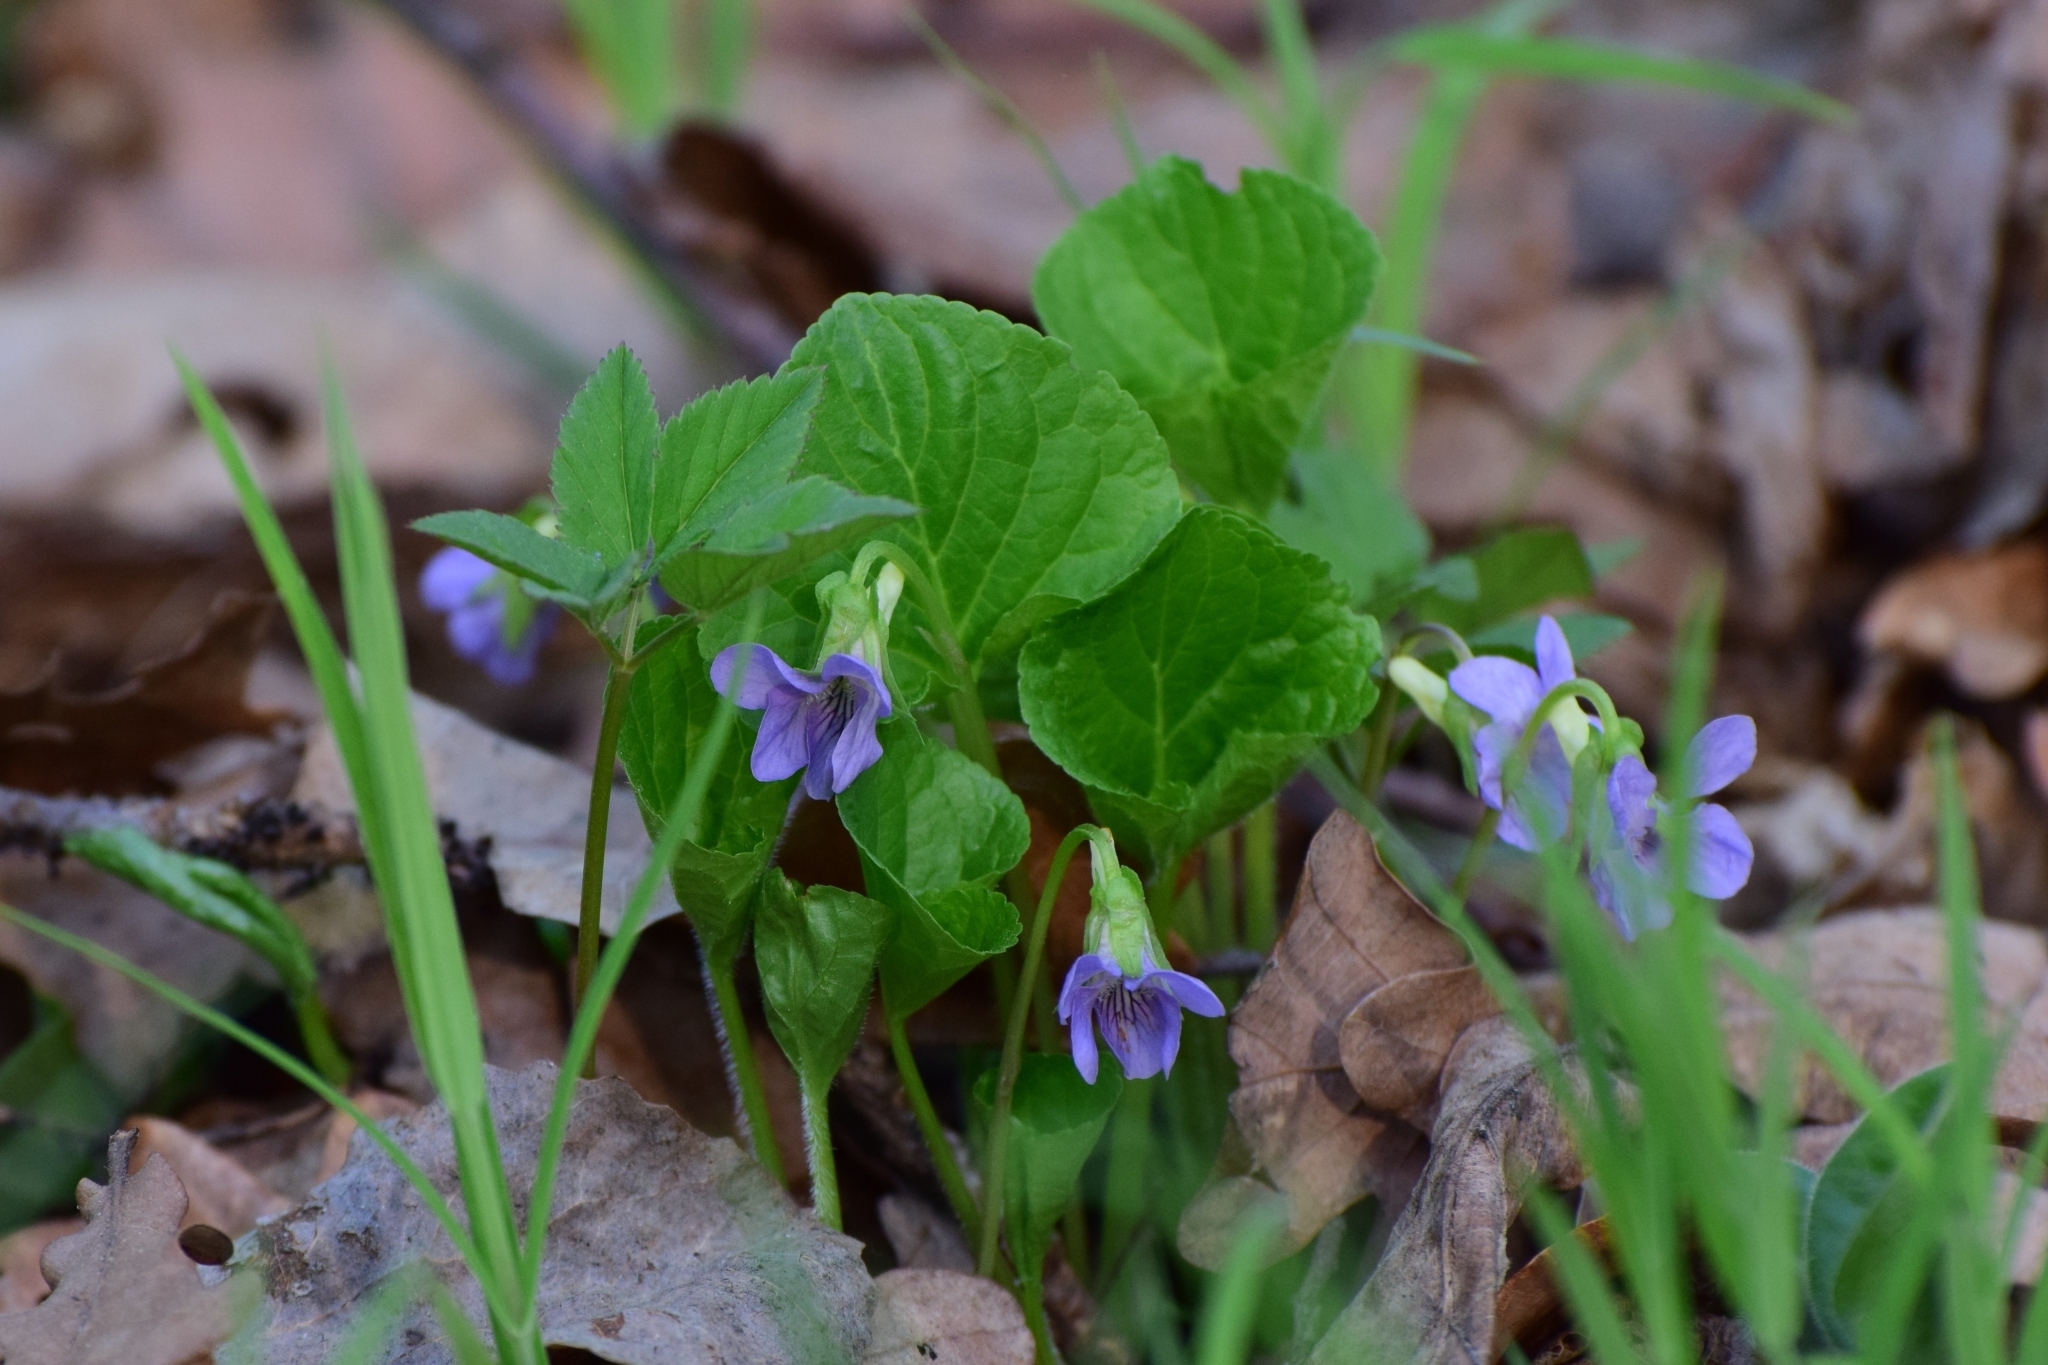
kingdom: Plantae
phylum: Tracheophyta
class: Magnoliopsida
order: Malpighiales
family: Violaceae
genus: Viola
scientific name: Viola mirabilis
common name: Wonder violet
